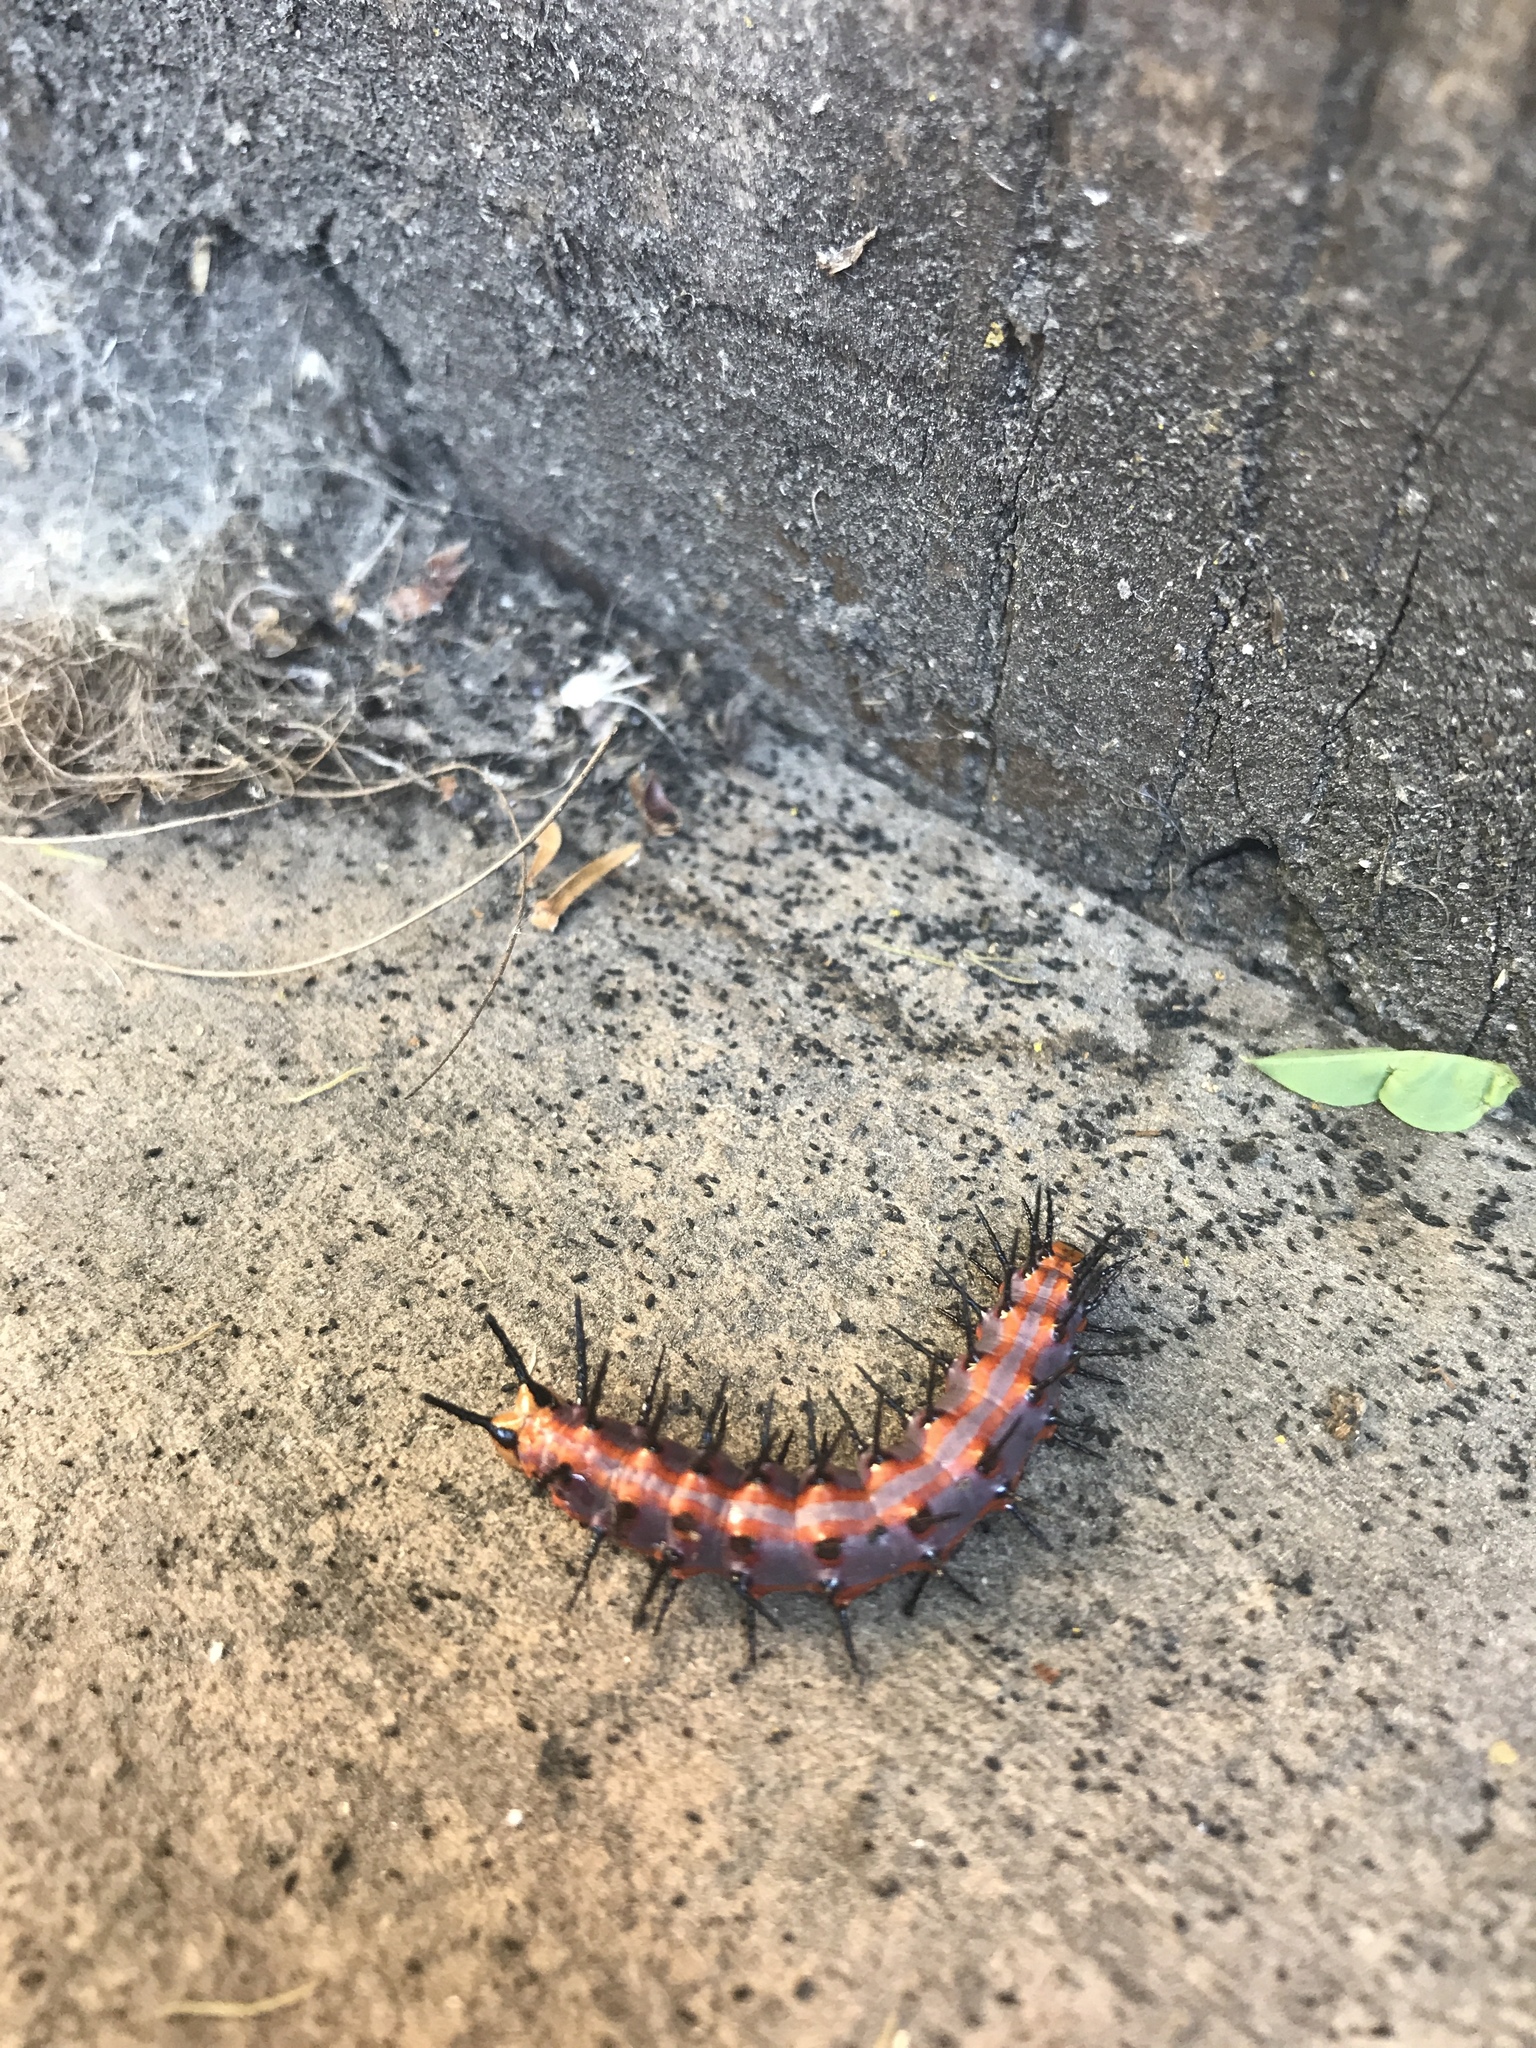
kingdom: Animalia
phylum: Arthropoda
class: Insecta
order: Lepidoptera
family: Nymphalidae
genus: Dione
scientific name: Dione vanillae
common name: Gulf fritillary
